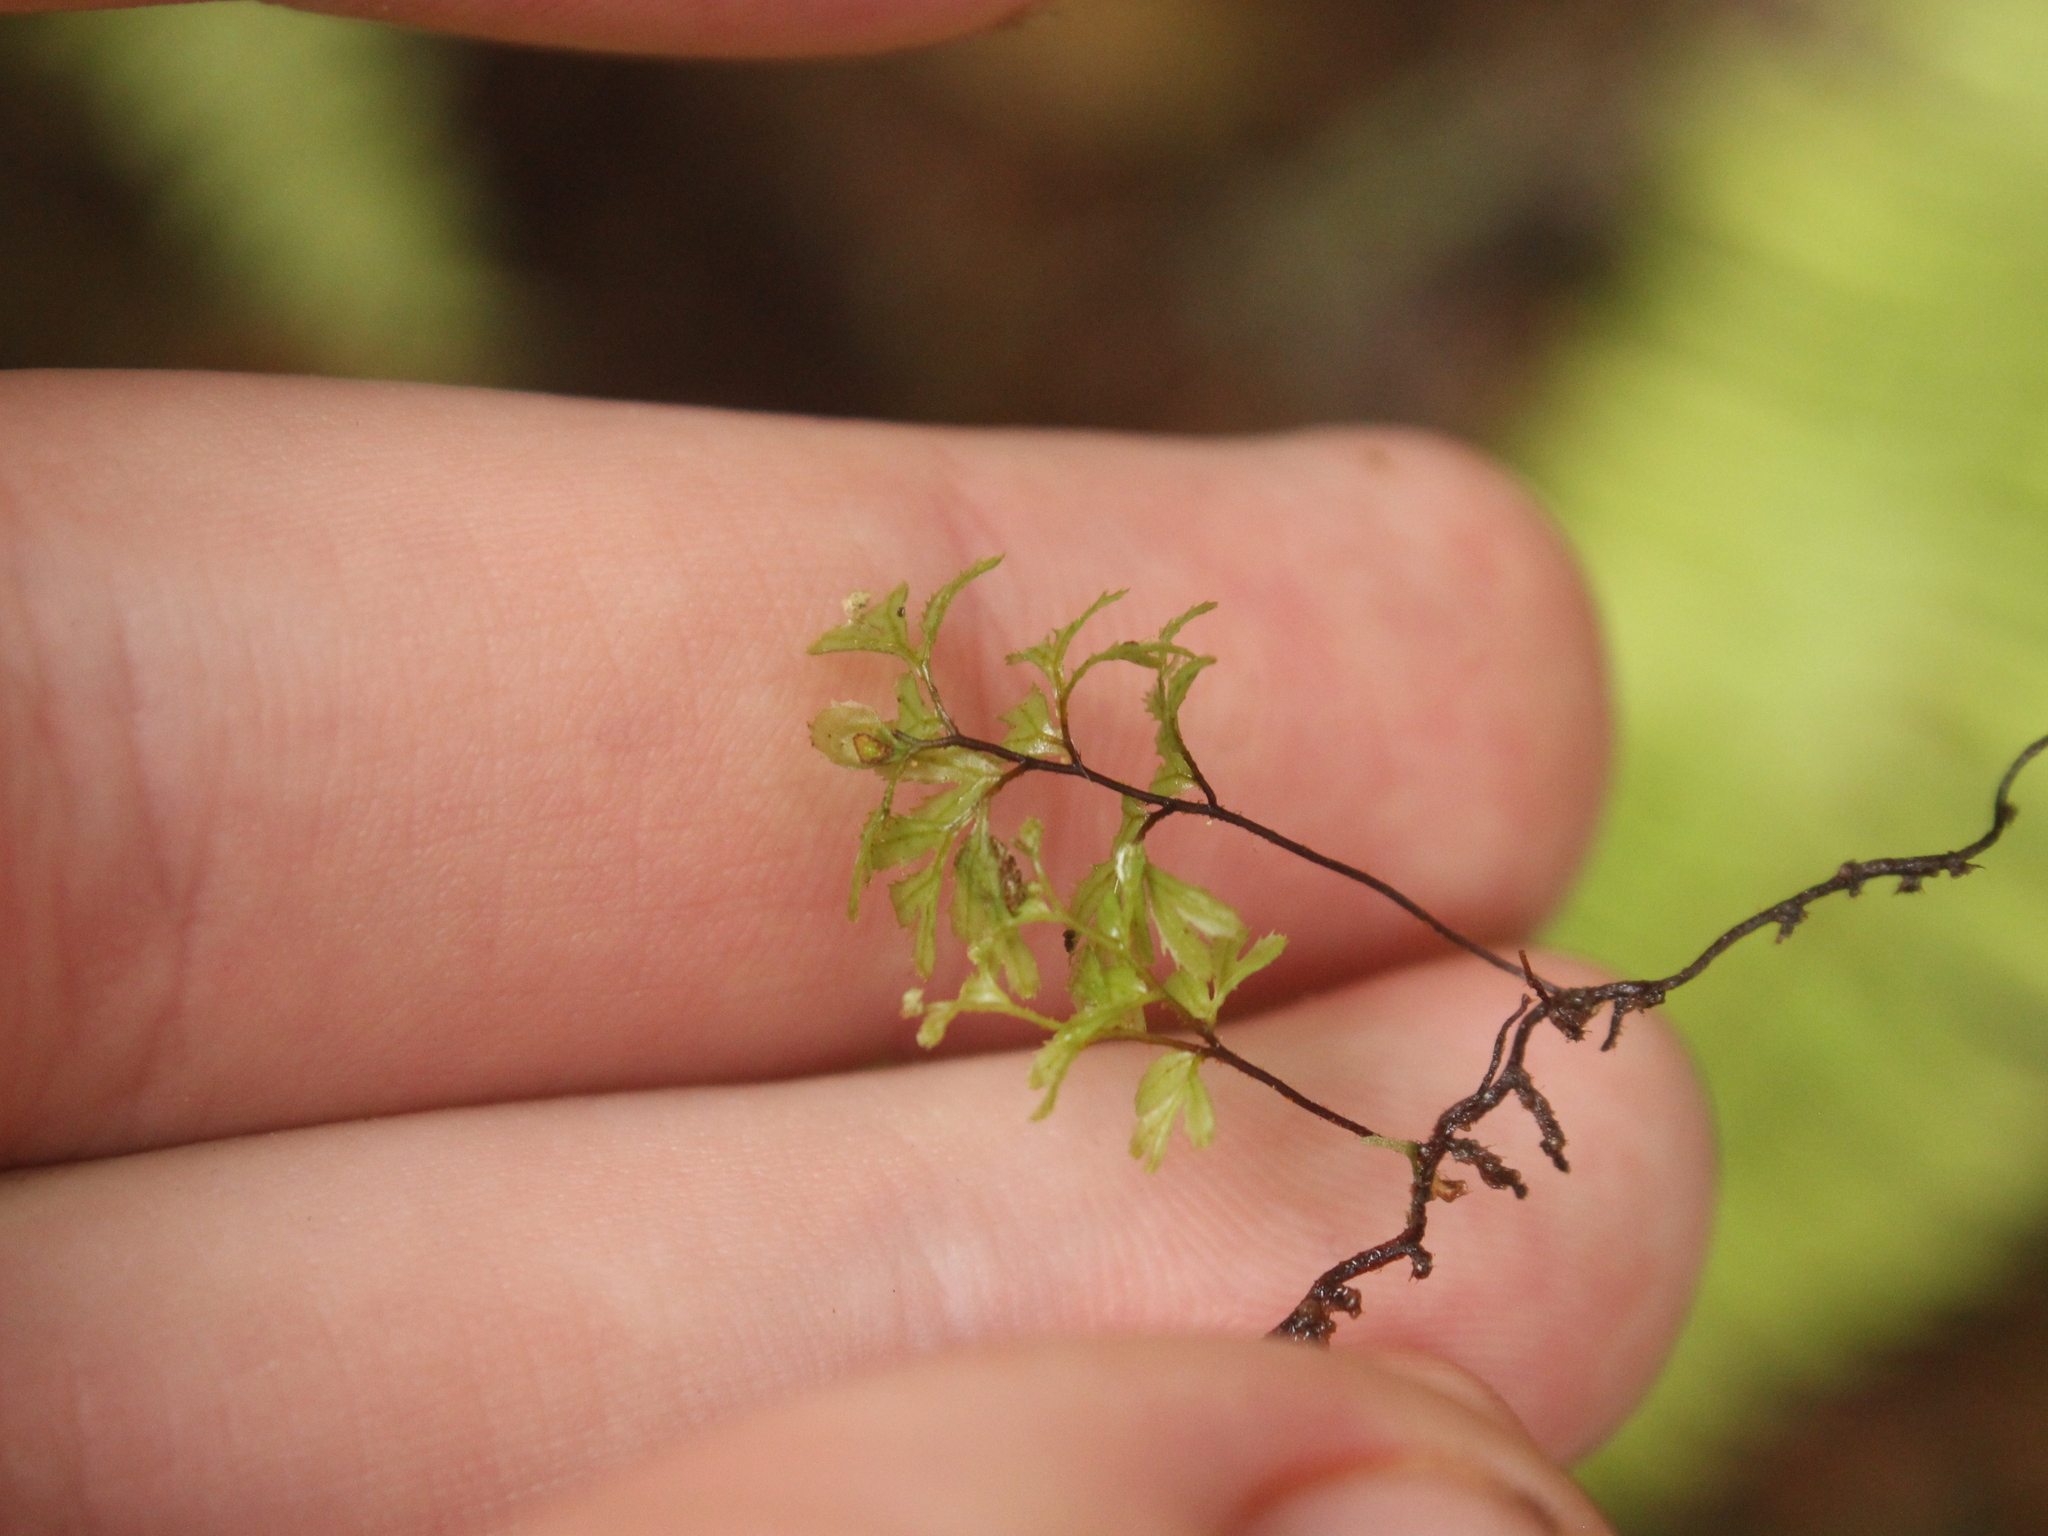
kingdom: Plantae
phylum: Tracheophyta
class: Polypodiopsida
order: Hymenophyllales
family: Hymenophyllaceae
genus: Hymenophyllum
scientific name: Hymenophyllum revolutum
